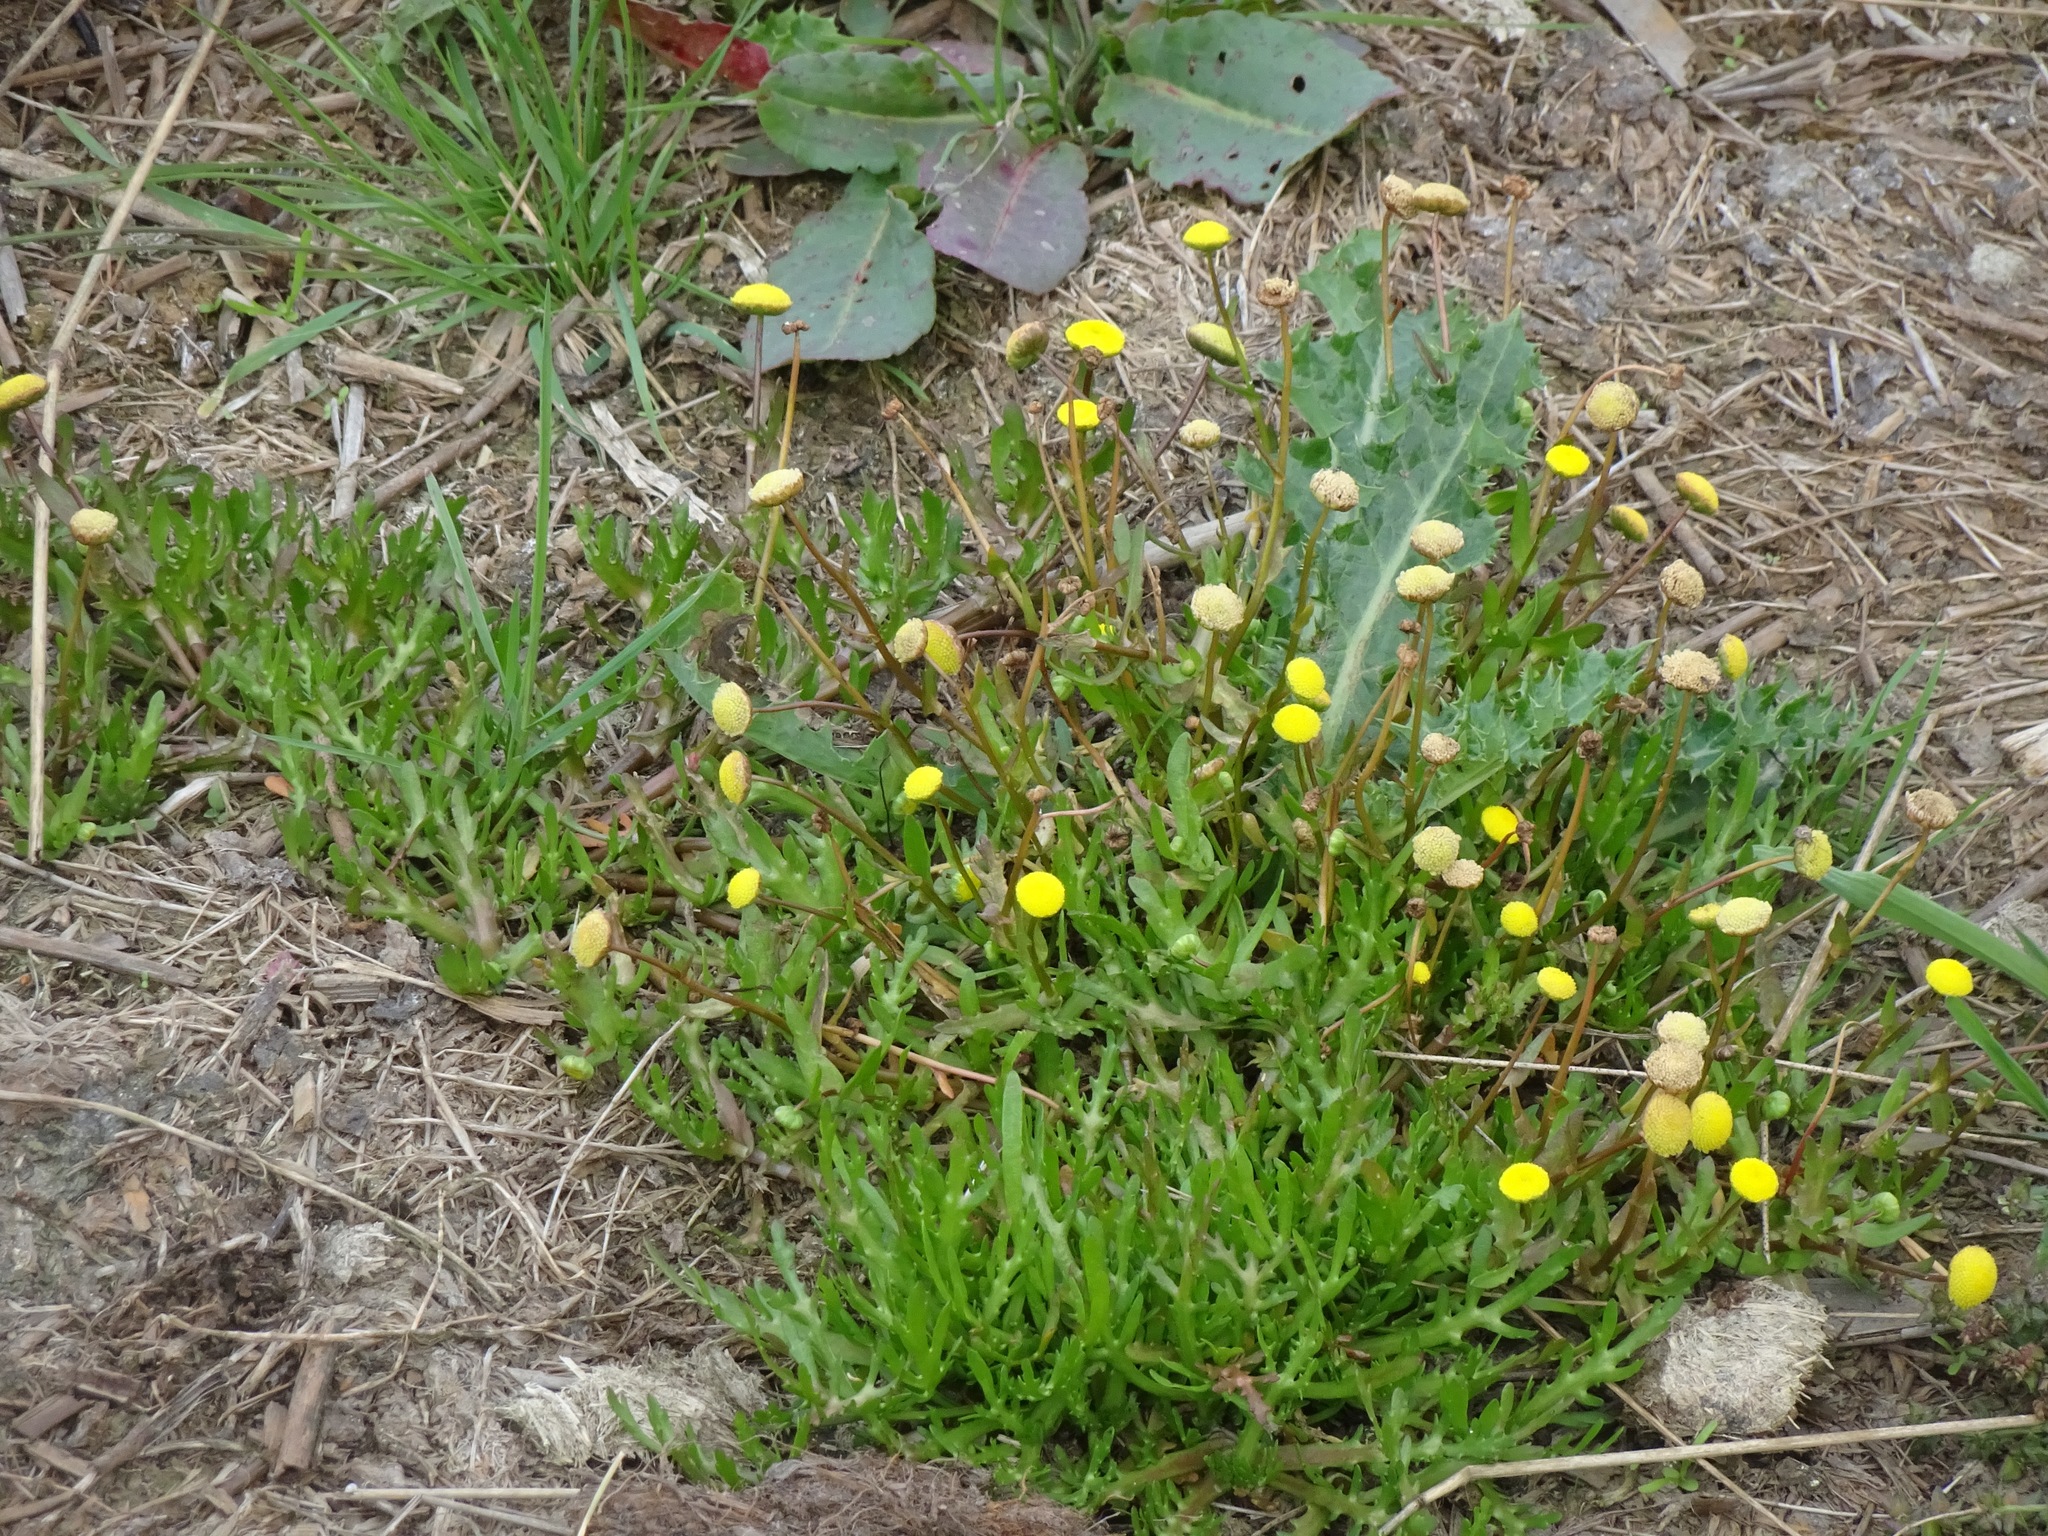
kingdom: Plantae
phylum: Tracheophyta
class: Magnoliopsida
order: Asterales
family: Asteraceae
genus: Cotula
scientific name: Cotula coronopifolia
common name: Buttonweed
